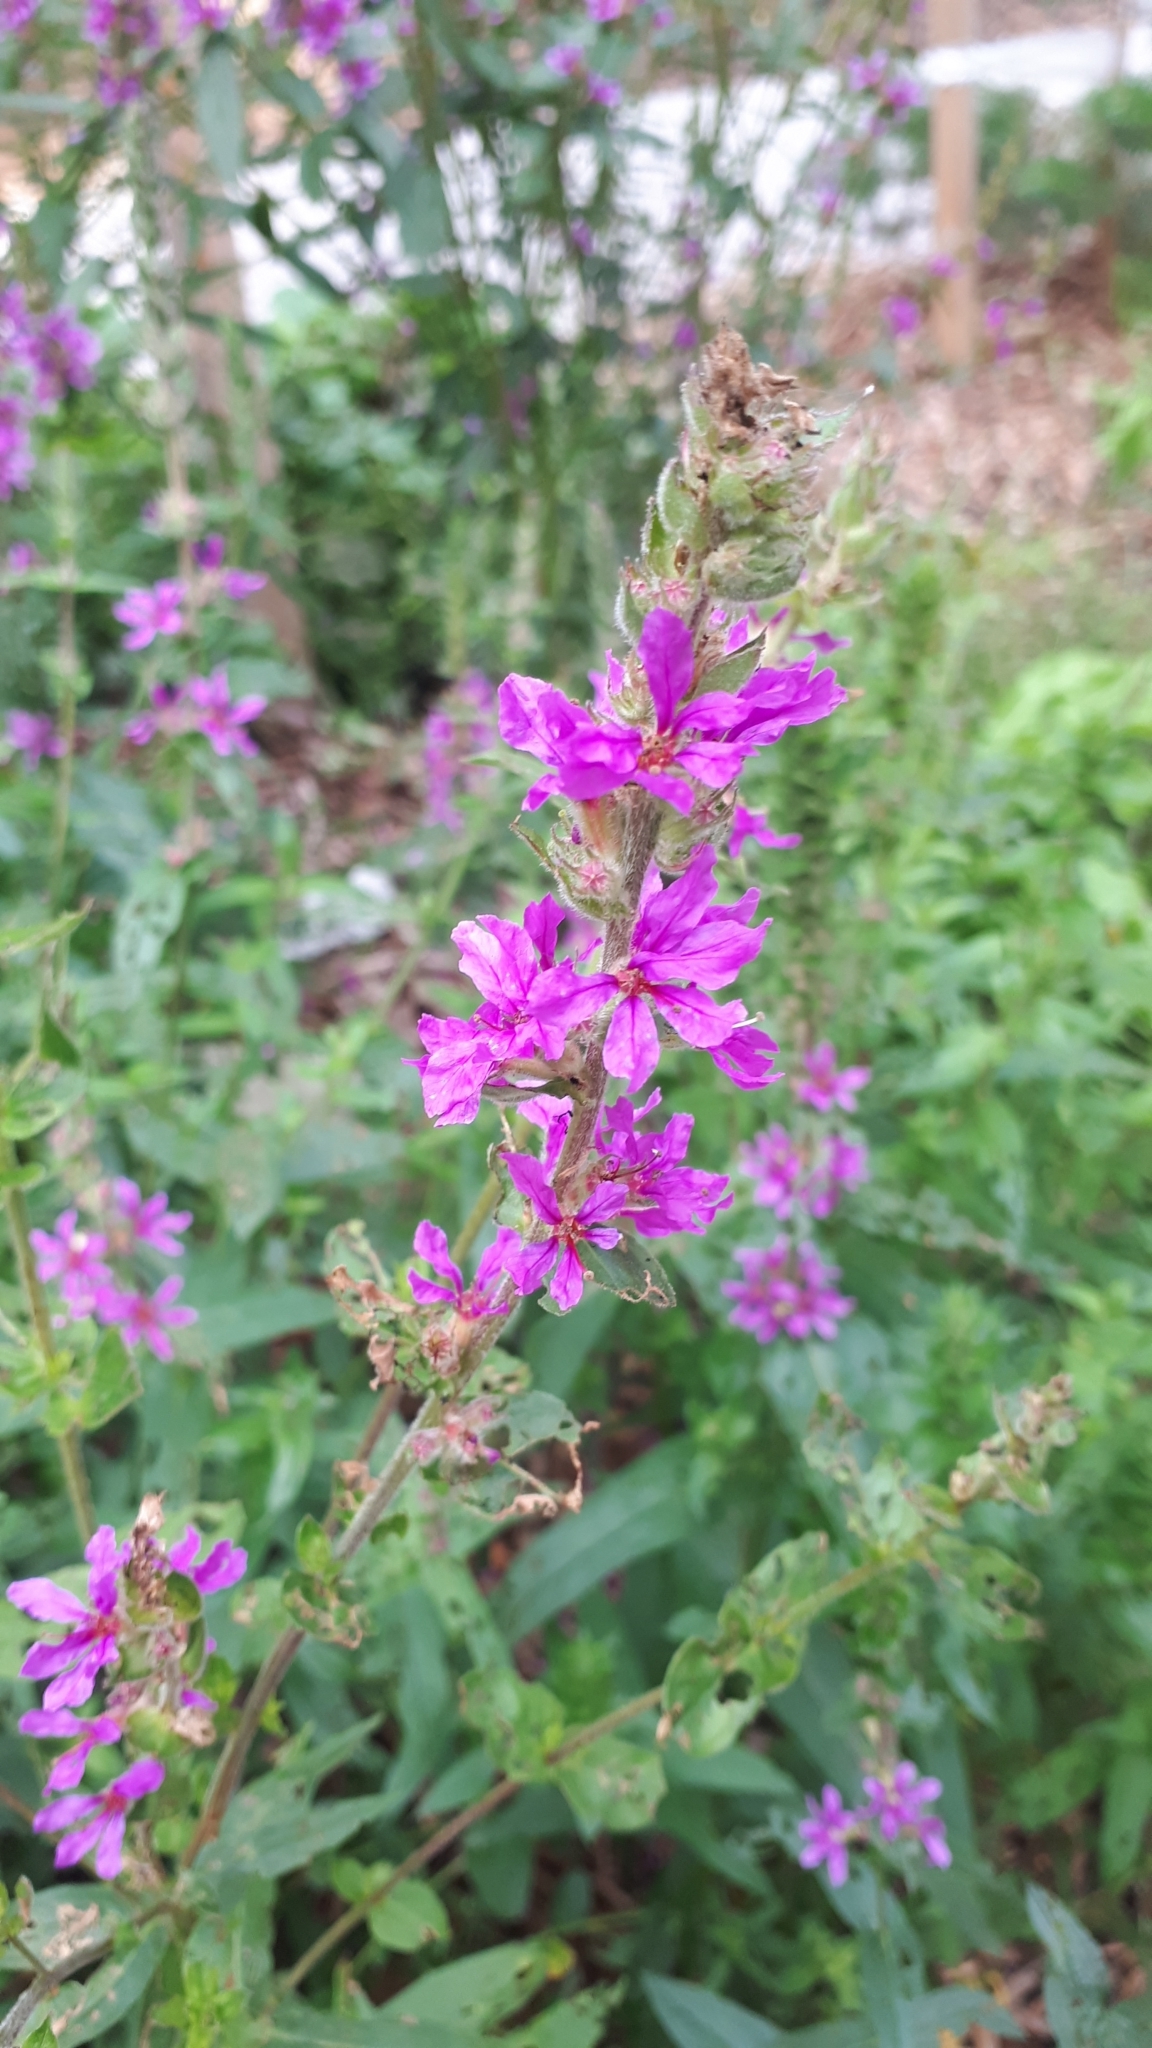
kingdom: Plantae
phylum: Tracheophyta
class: Magnoliopsida
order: Myrtales
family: Lythraceae
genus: Lythrum
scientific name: Lythrum salicaria
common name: Purple loosestrife
